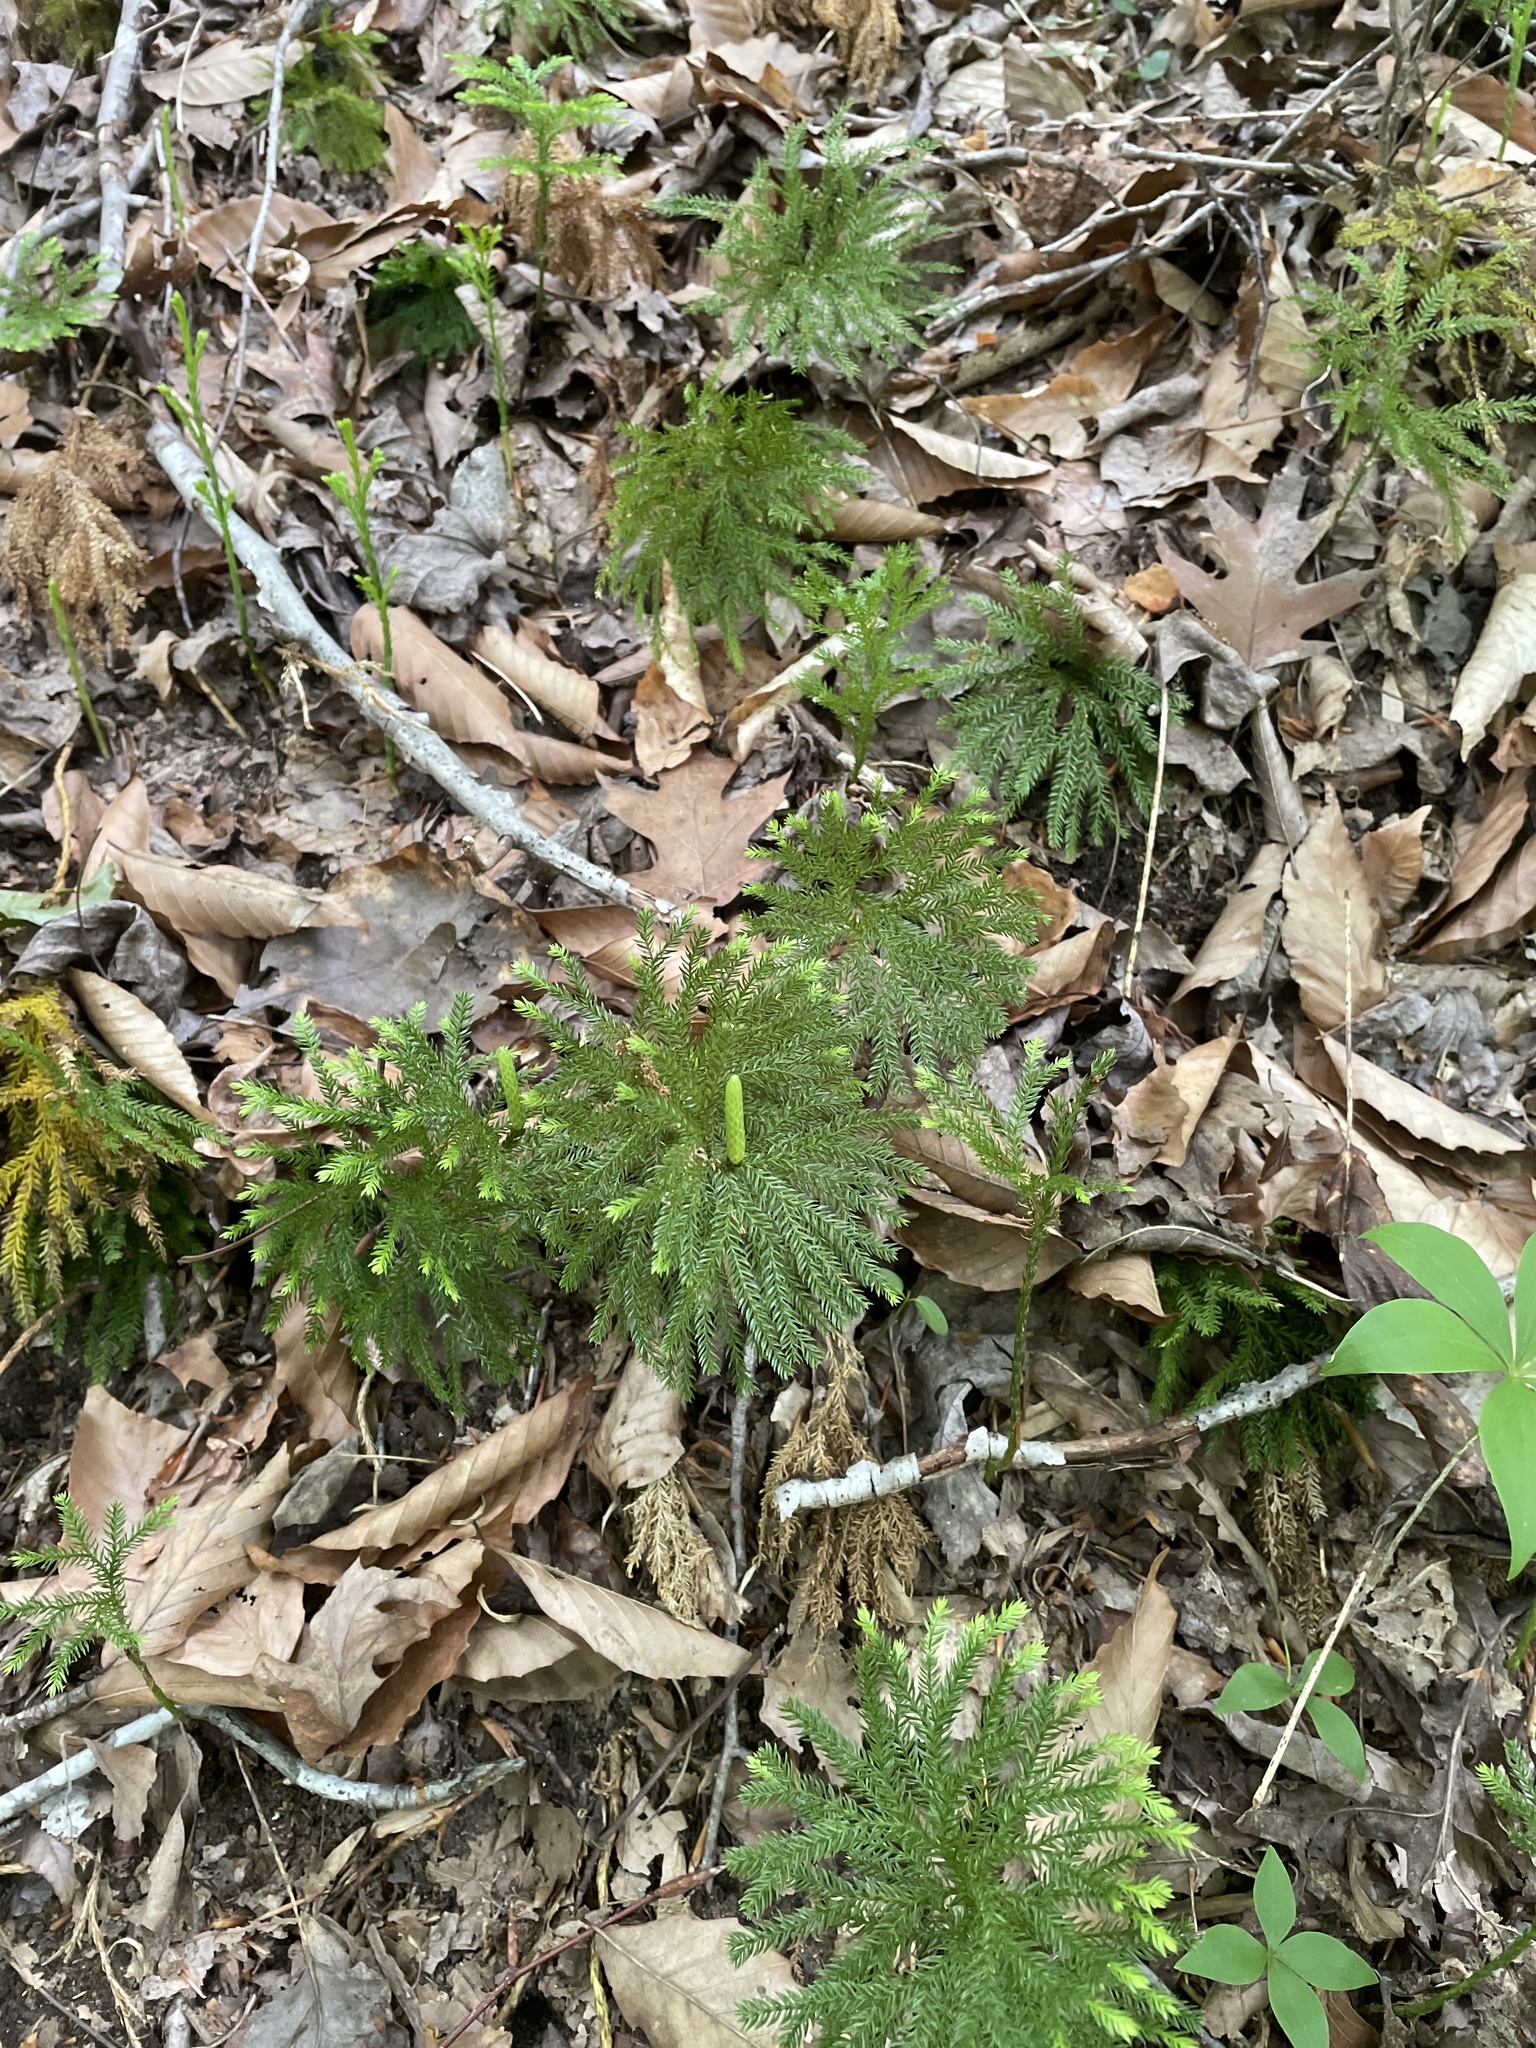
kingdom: Plantae
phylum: Tracheophyta
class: Lycopodiopsida
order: Lycopodiales
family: Lycopodiaceae
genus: Dendrolycopodium
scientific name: Dendrolycopodium obscurum
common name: Common ground-pine
